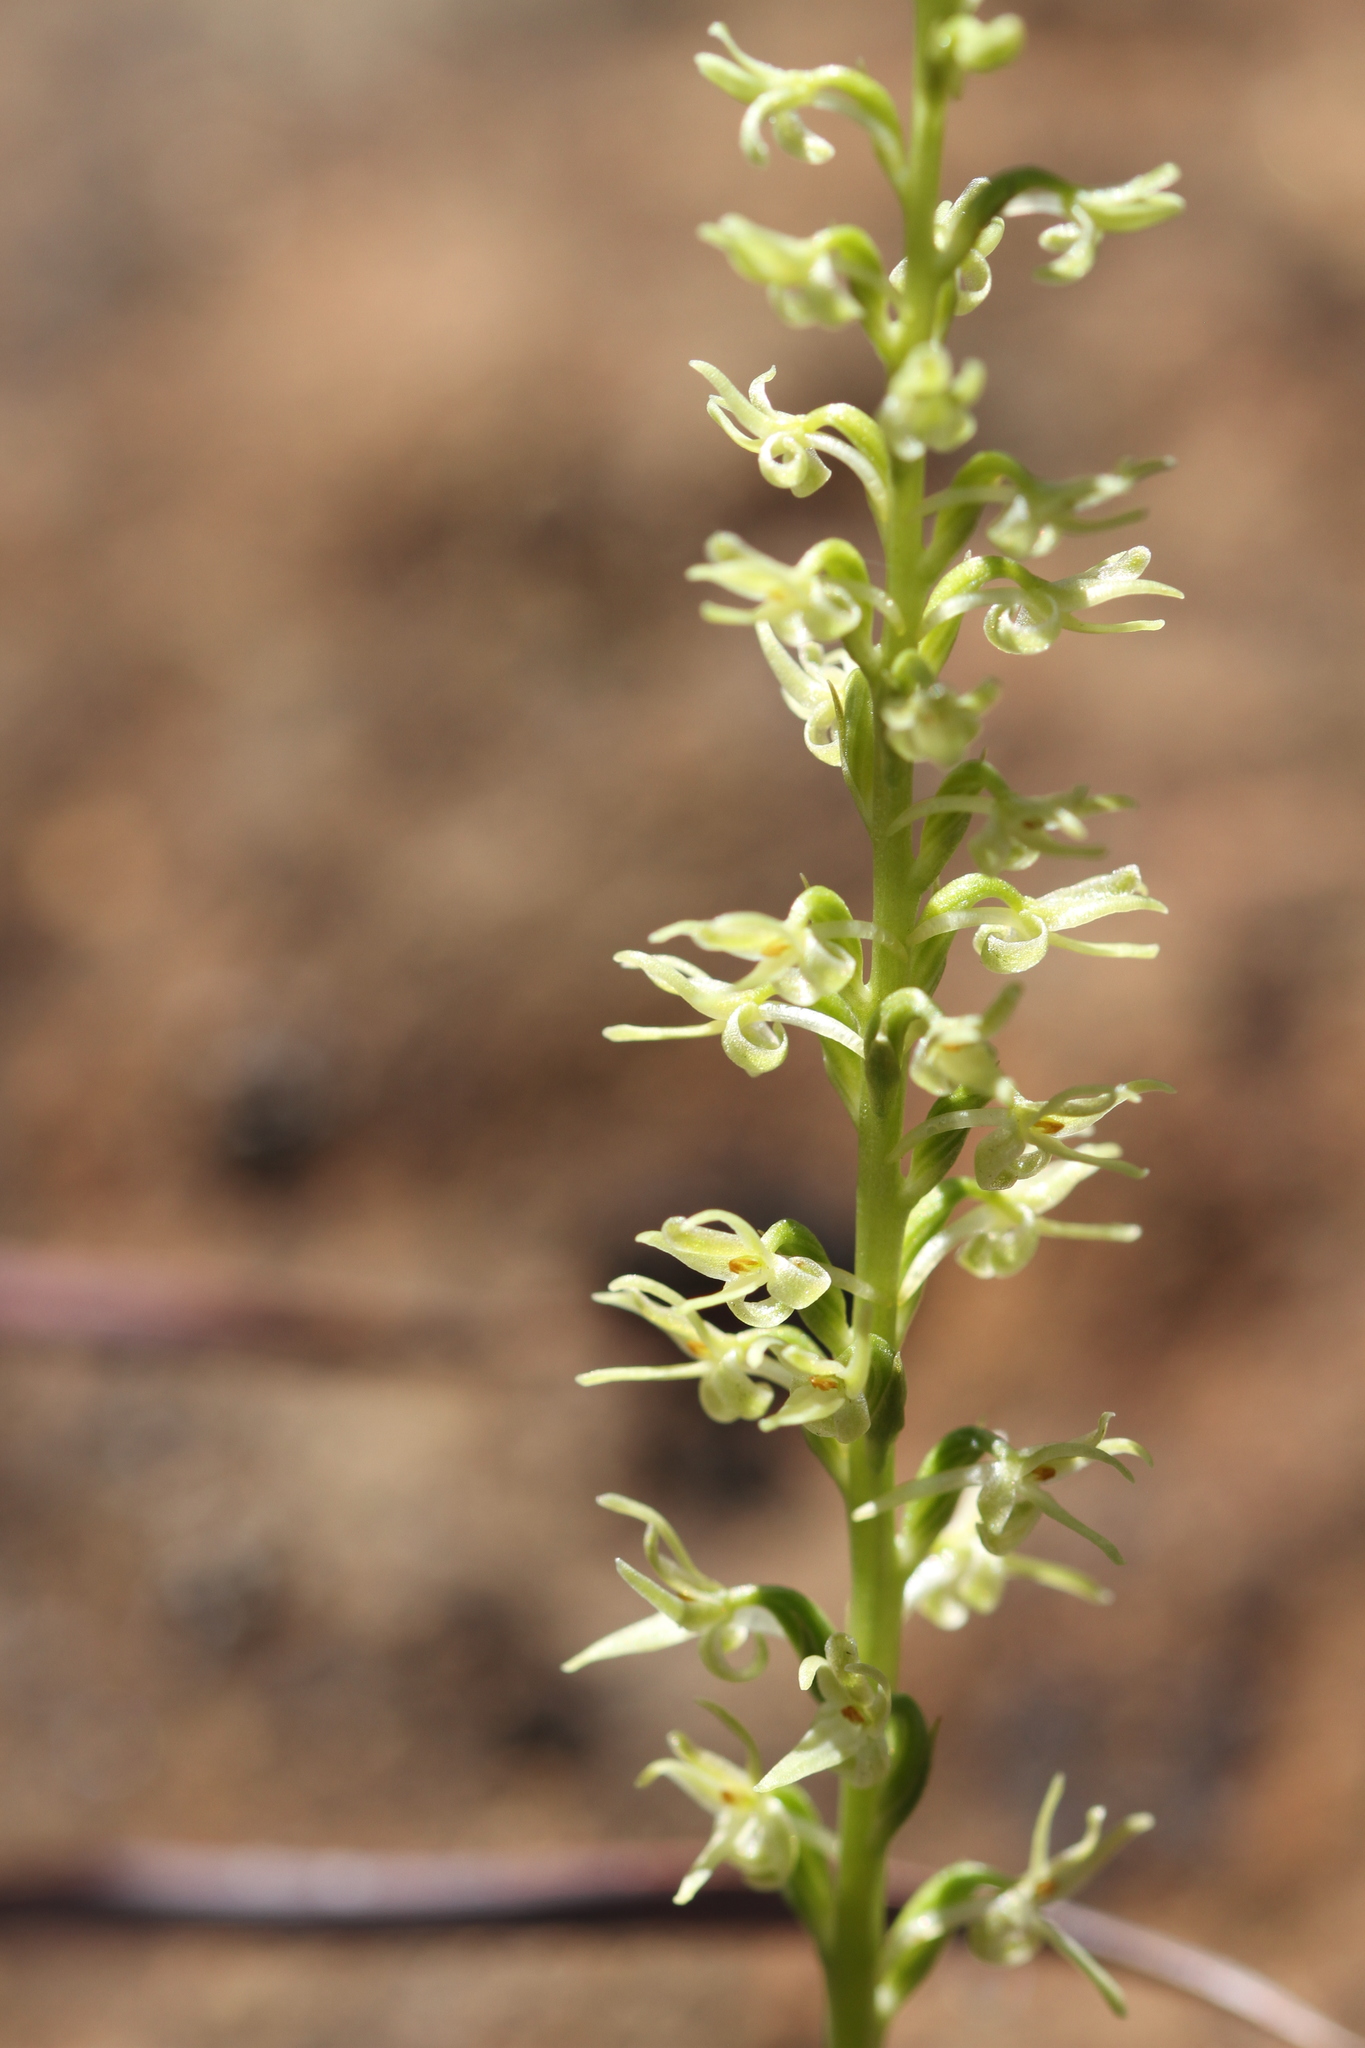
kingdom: Plantae
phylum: Tracheophyta
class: Liliopsida
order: Asparagales
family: Orchidaceae
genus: Platanthera
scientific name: Platanthera leptopetala
